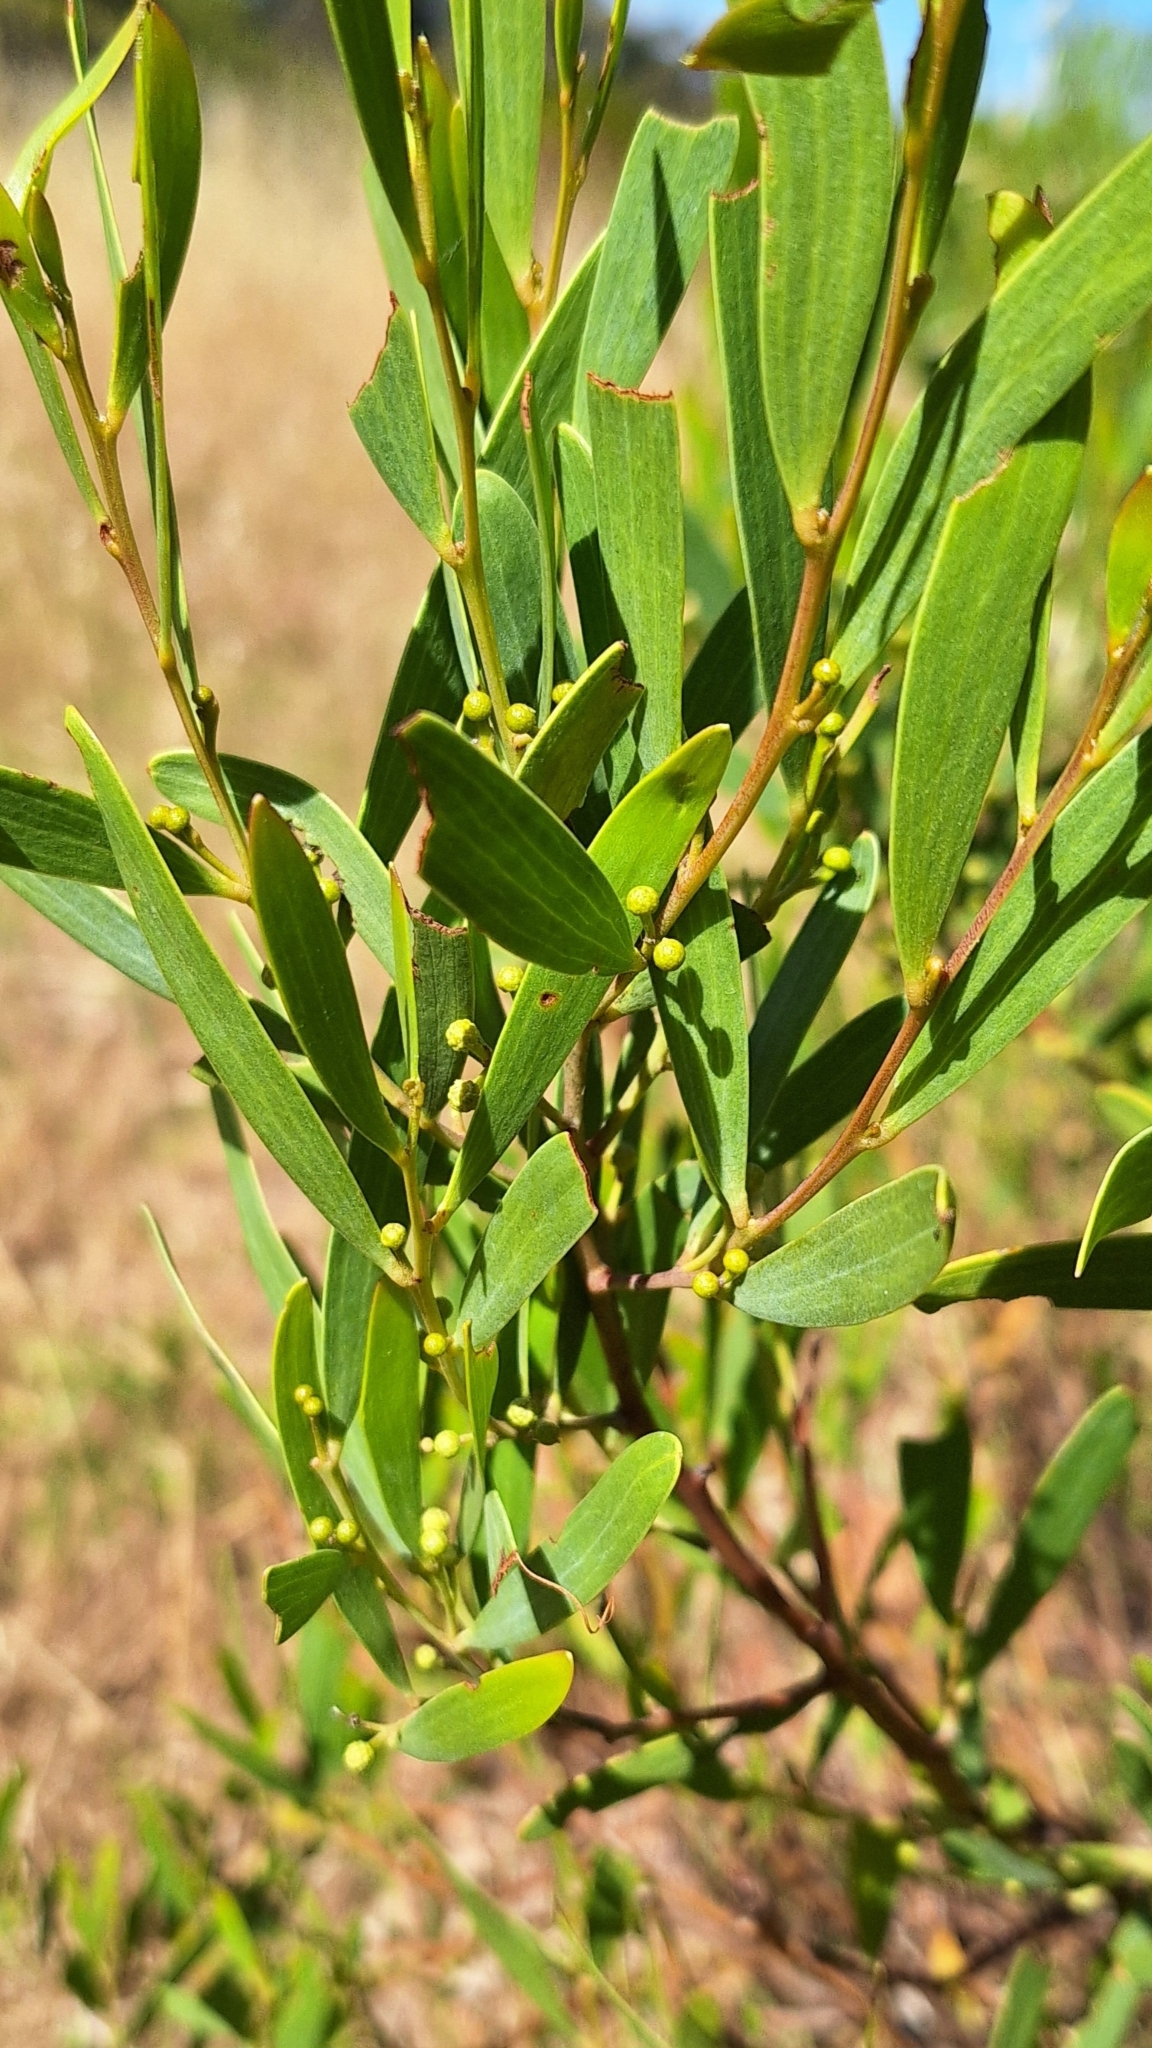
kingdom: Plantae
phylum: Tracheophyta
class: Magnoliopsida
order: Fabales
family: Fabaceae
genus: Acacia
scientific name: Acacia cyclops
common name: Coastal wattle
